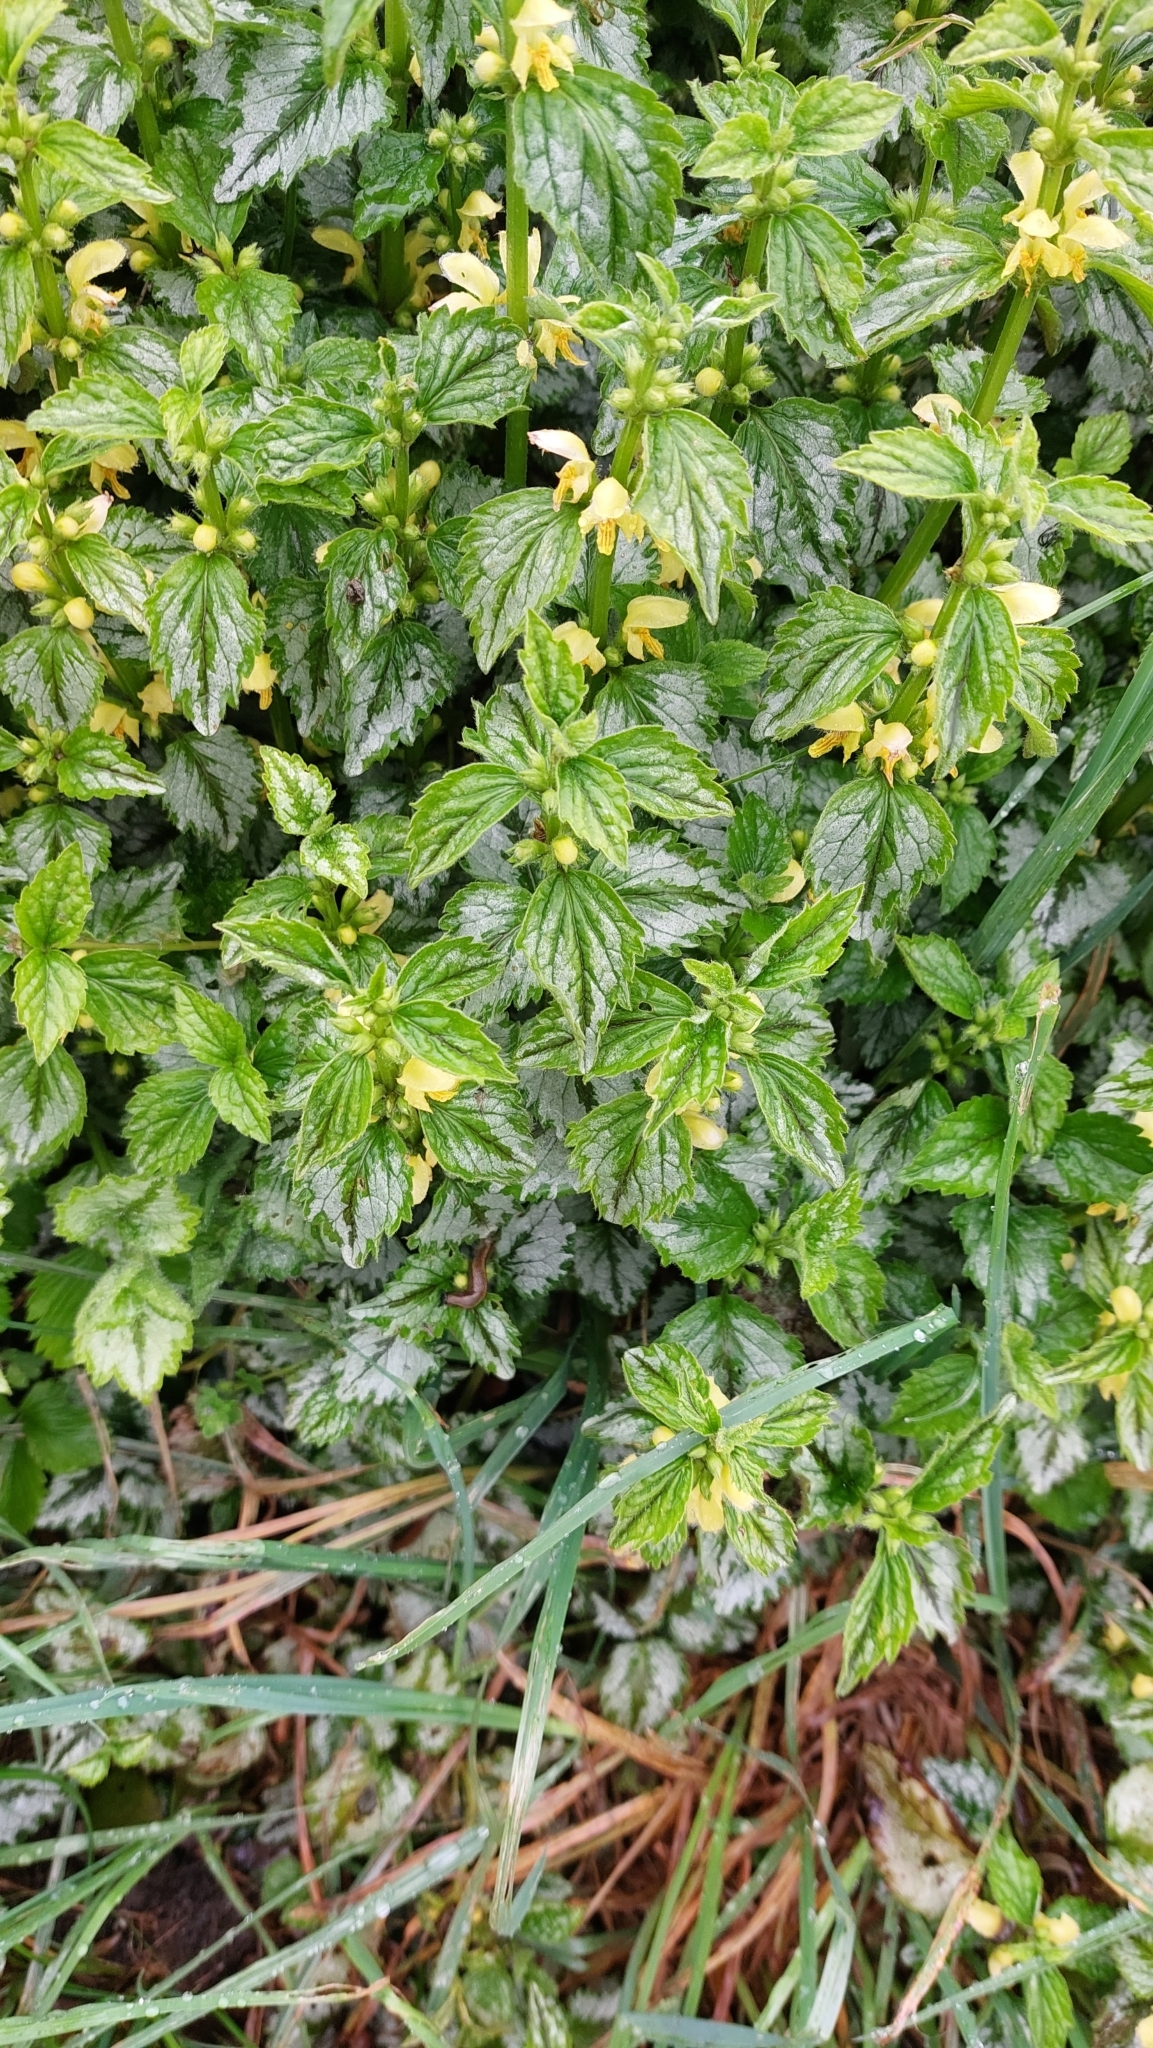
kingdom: Plantae
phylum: Tracheophyta
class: Magnoliopsida
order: Lamiales
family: Lamiaceae
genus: Lamium
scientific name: Lamium galeobdolon
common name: Yellow archangel
